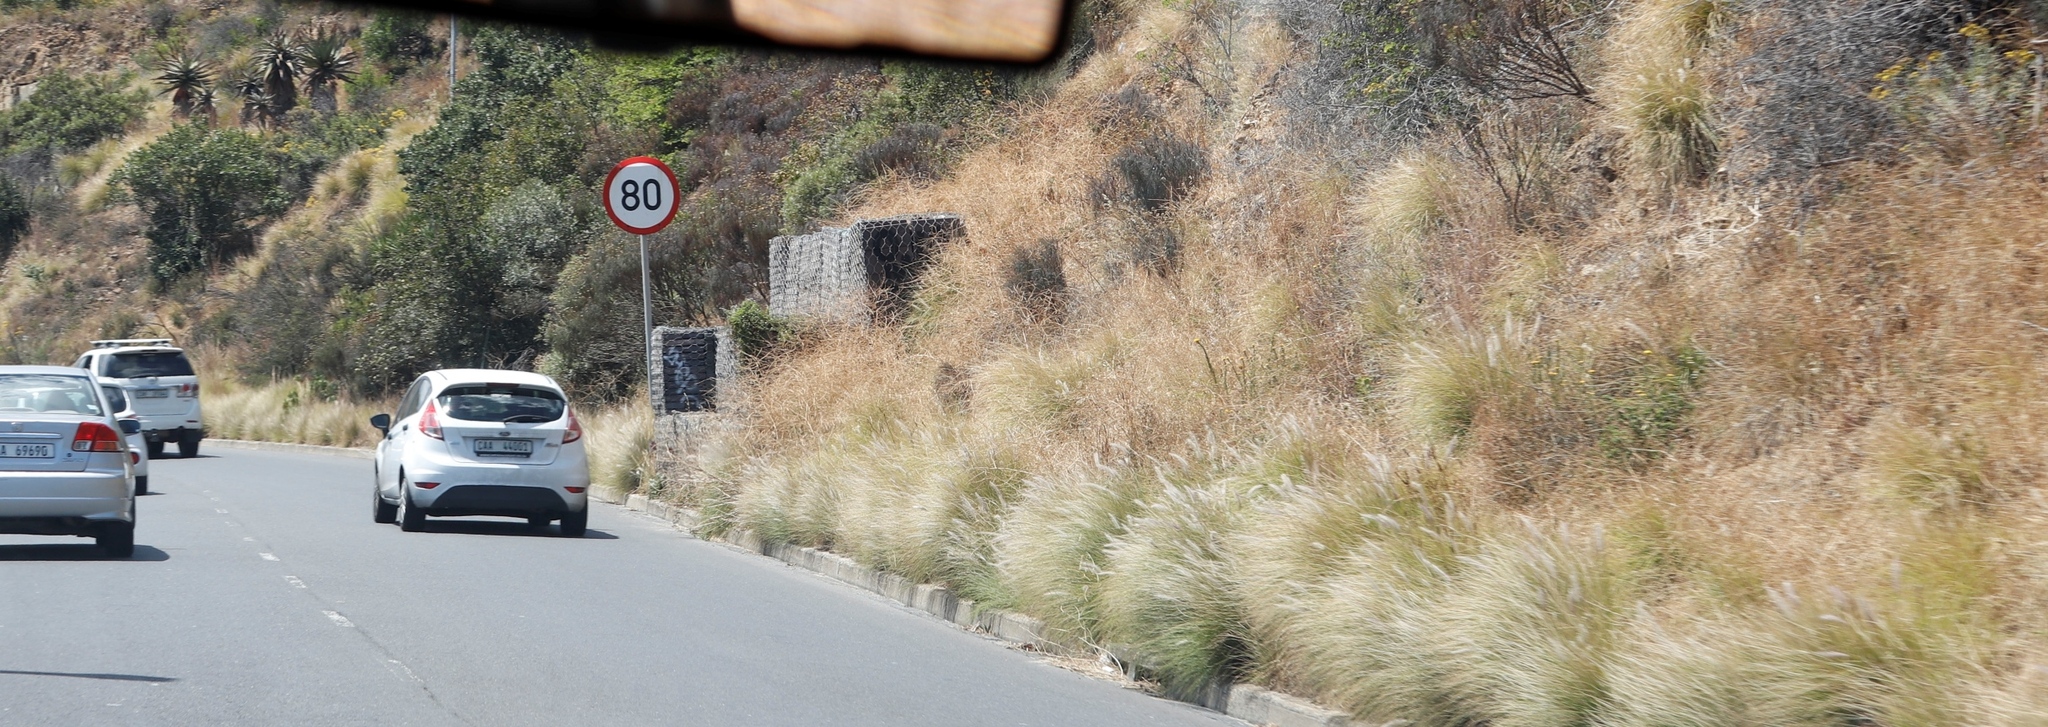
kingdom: Plantae
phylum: Tracheophyta
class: Liliopsida
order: Poales
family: Poaceae
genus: Cenchrus
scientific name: Cenchrus setaceus
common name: Crimson fountaingrass
